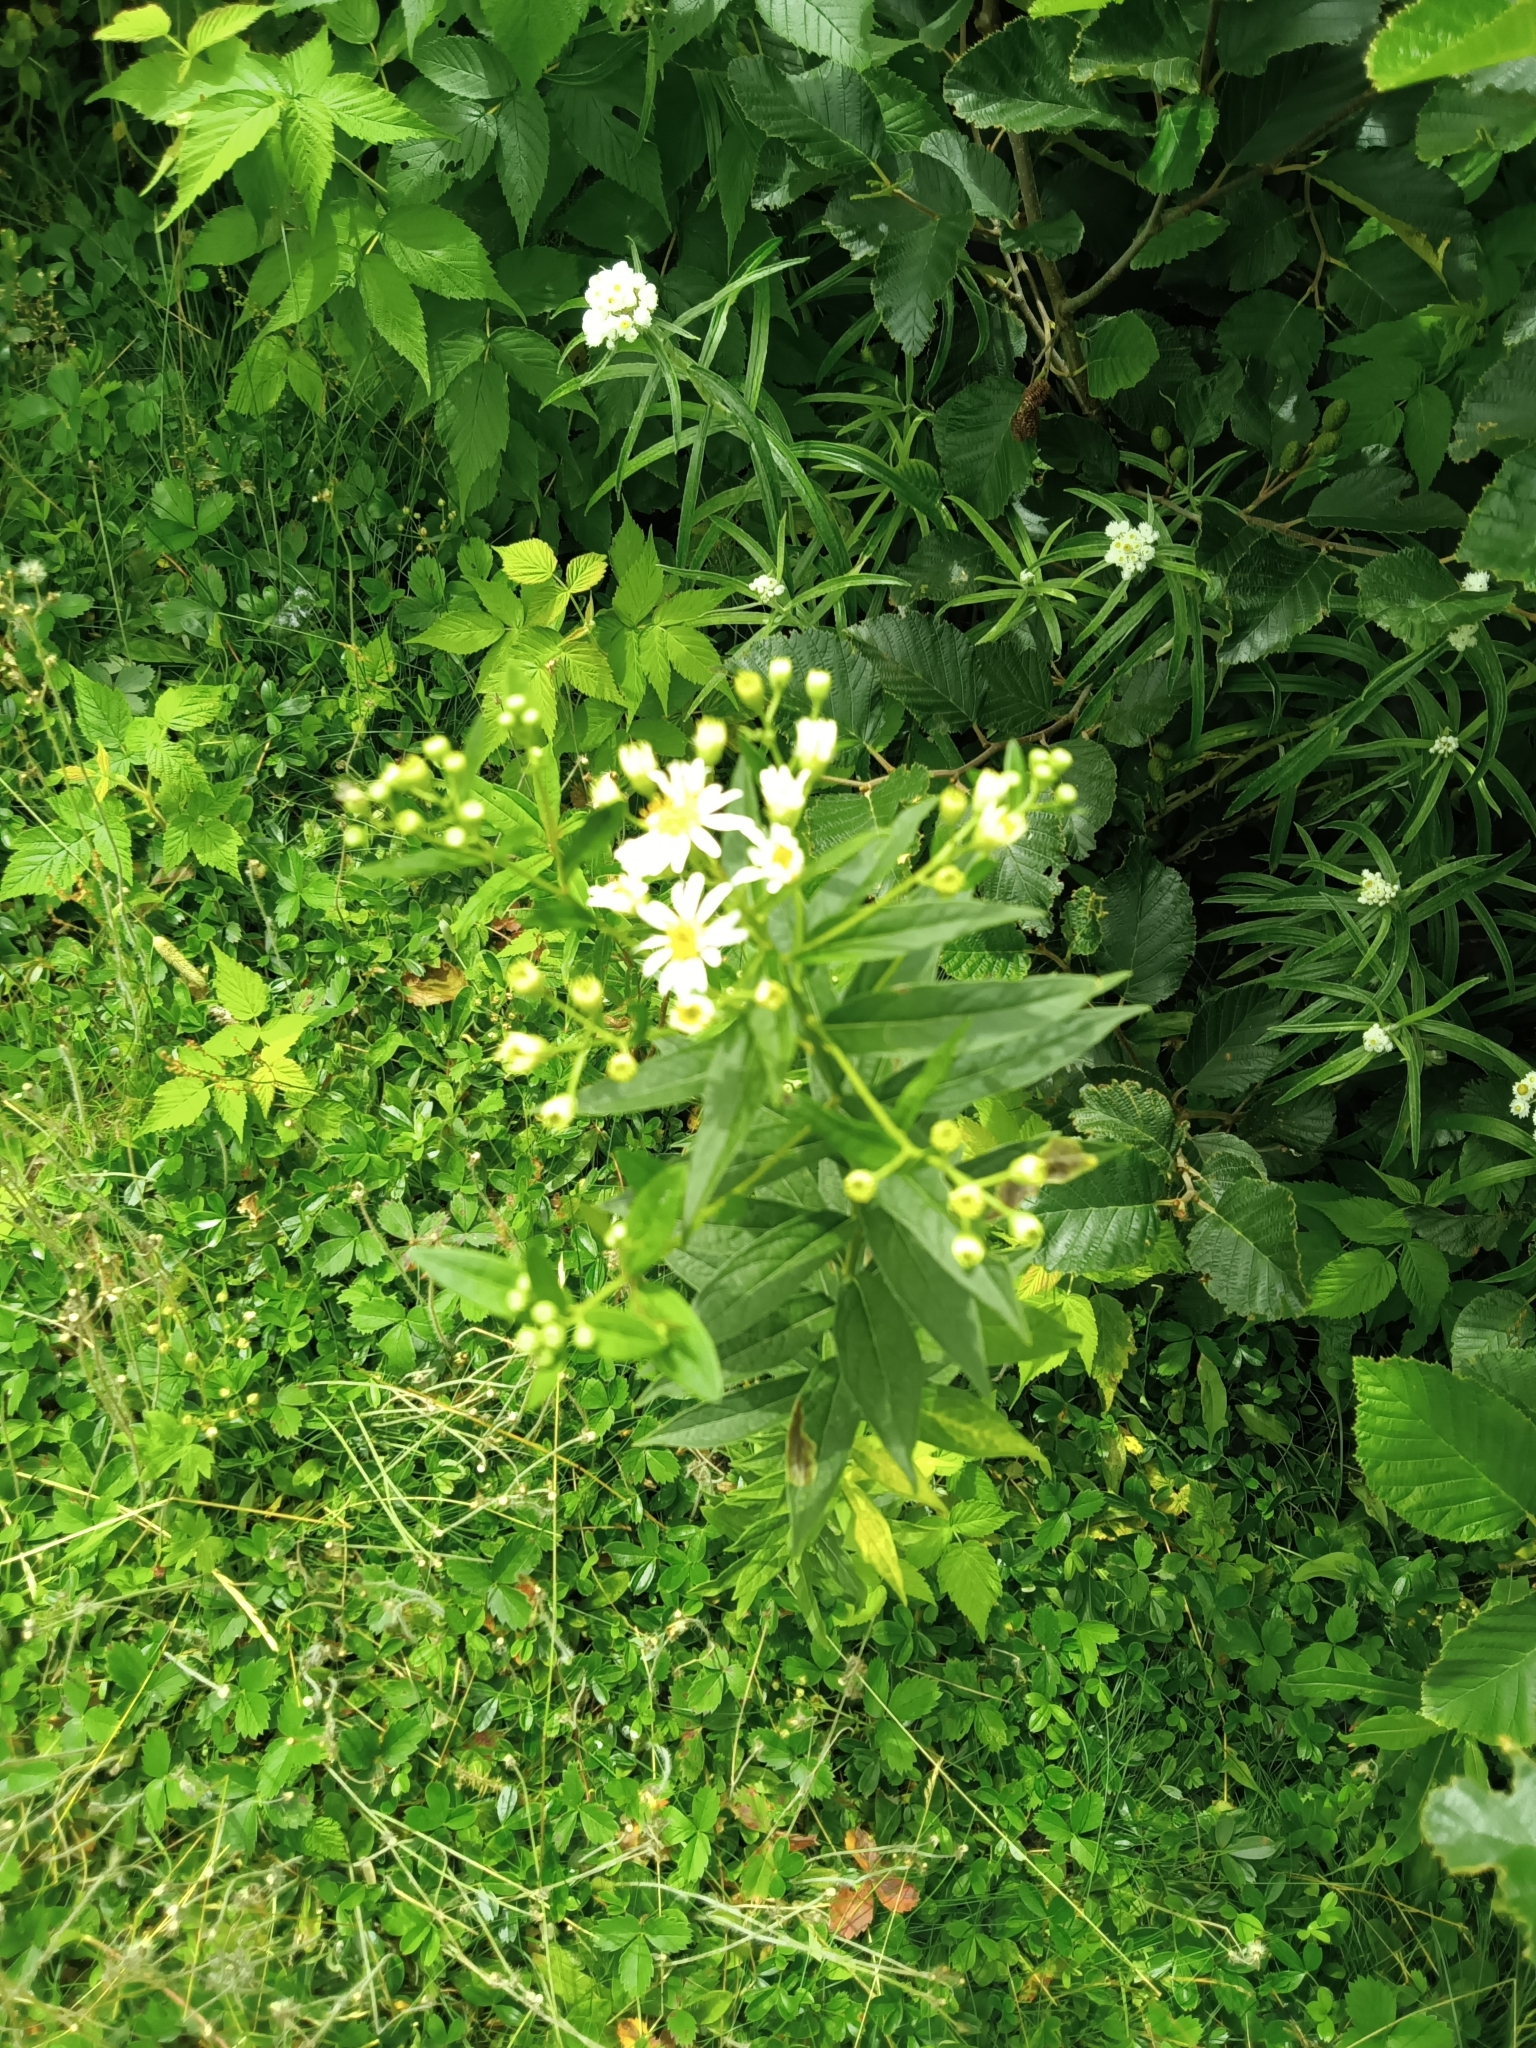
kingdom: Plantae
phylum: Tracheophyta
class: Magnoliopsida
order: Asterales
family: Asteraceae
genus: Doellingeria
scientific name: Doellingeria umbellata
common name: Flat-top white aster
